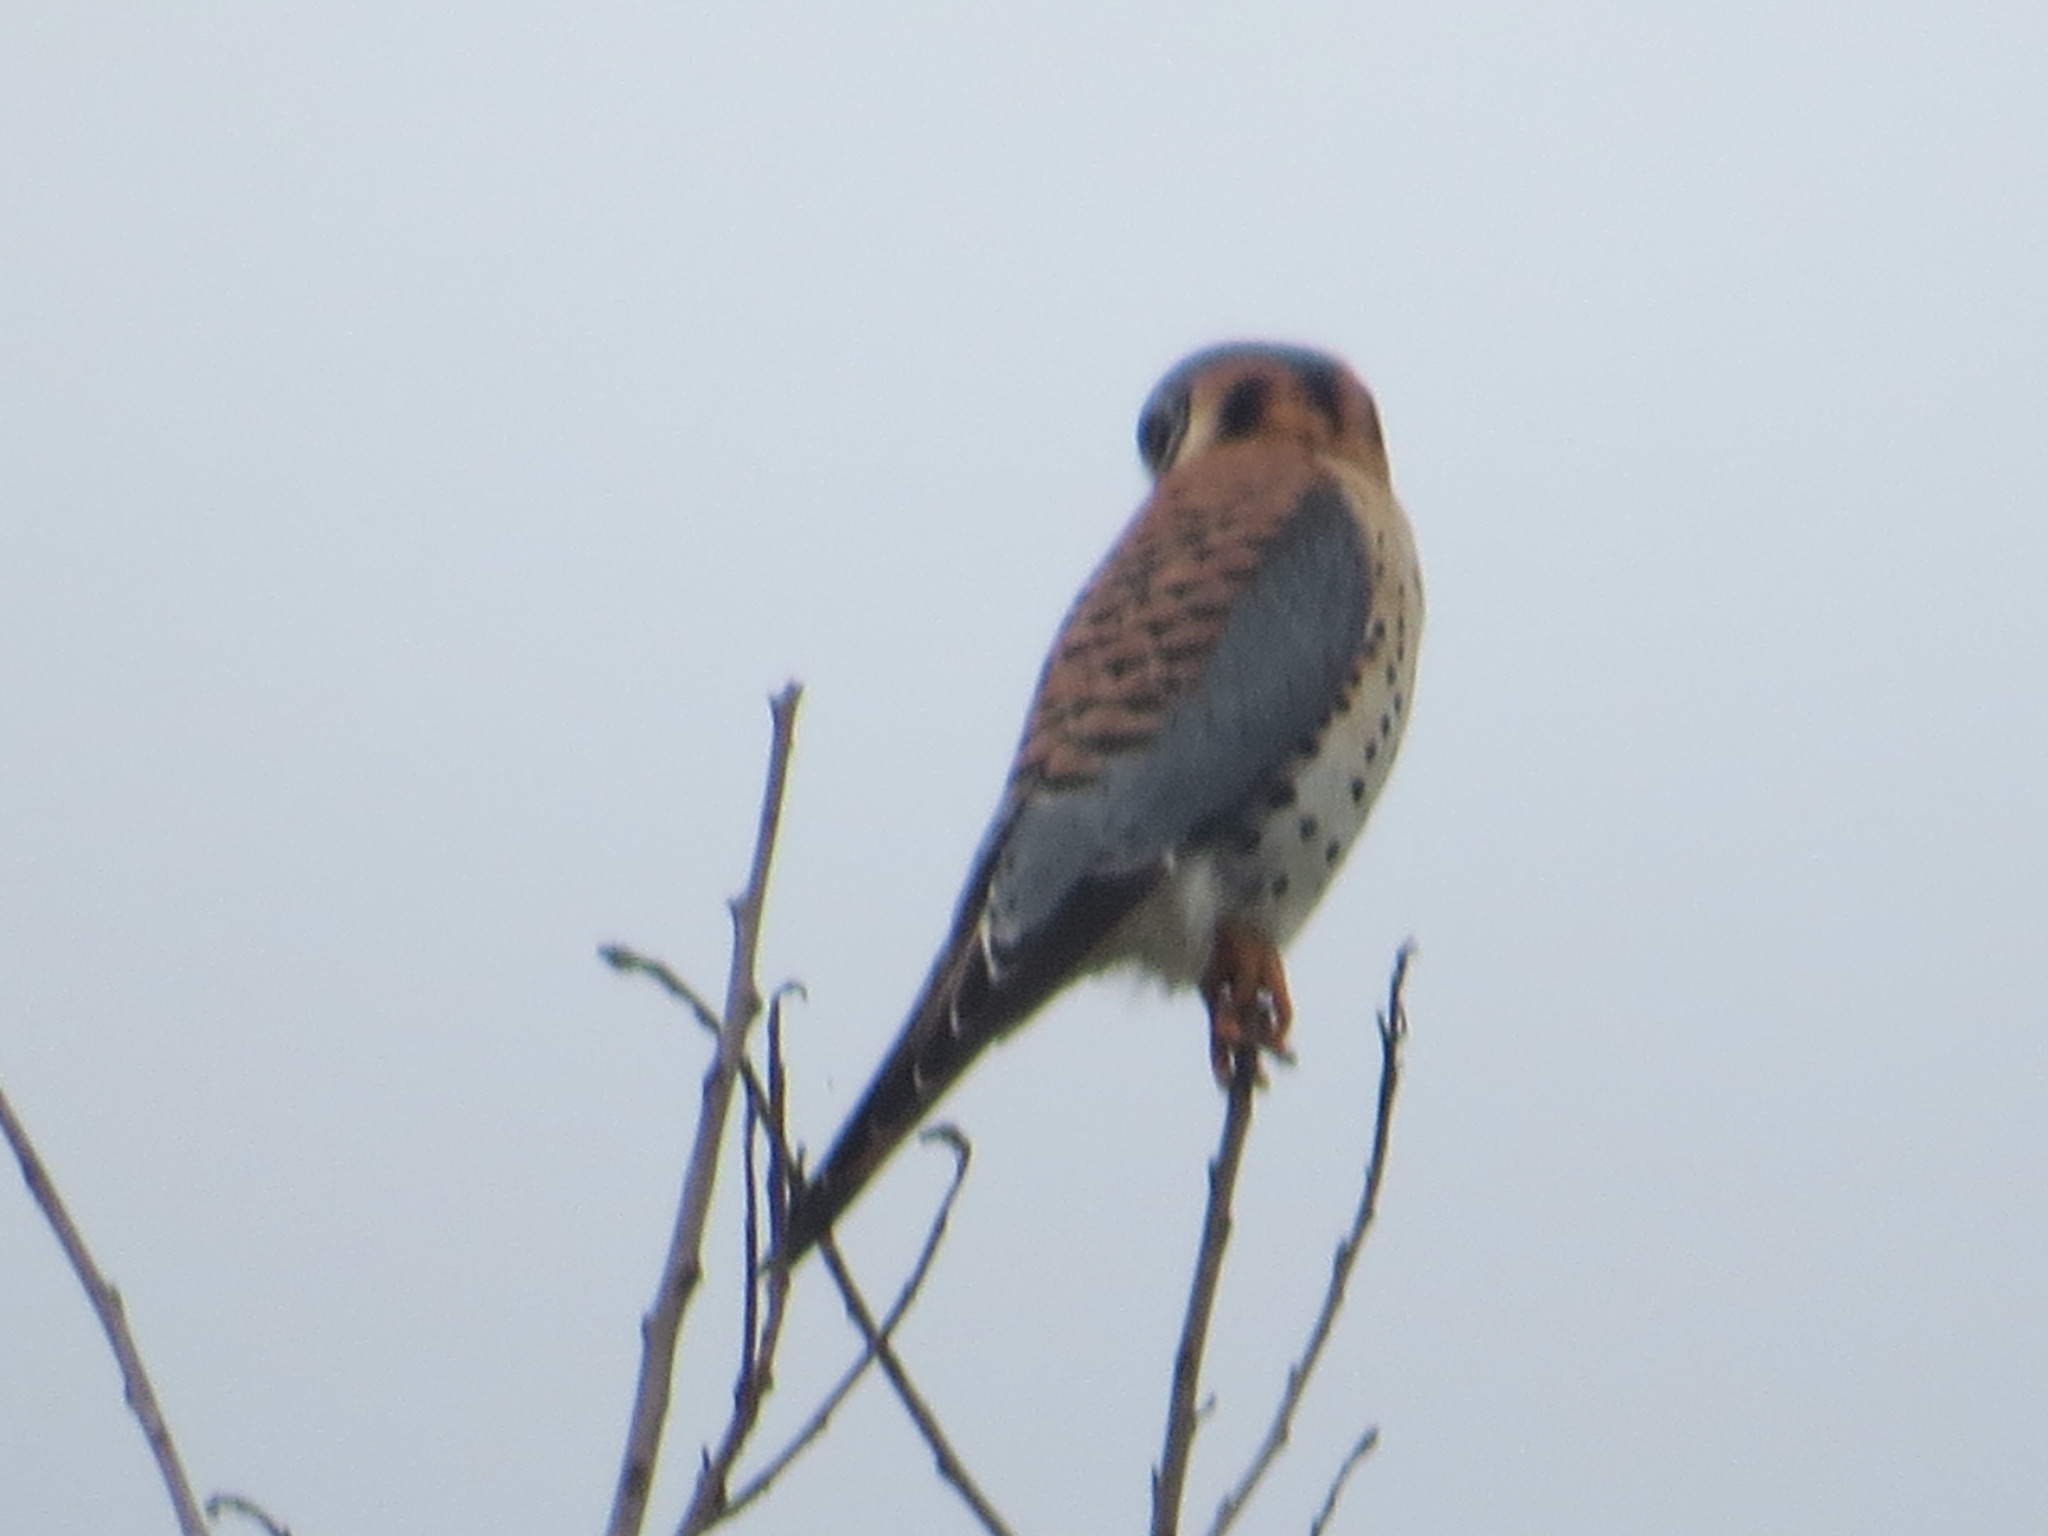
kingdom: Animalia
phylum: Chordata
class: Aves
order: Falconiformes
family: Falconidae
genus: Falco
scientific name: Falco sparverius
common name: American kestrel
